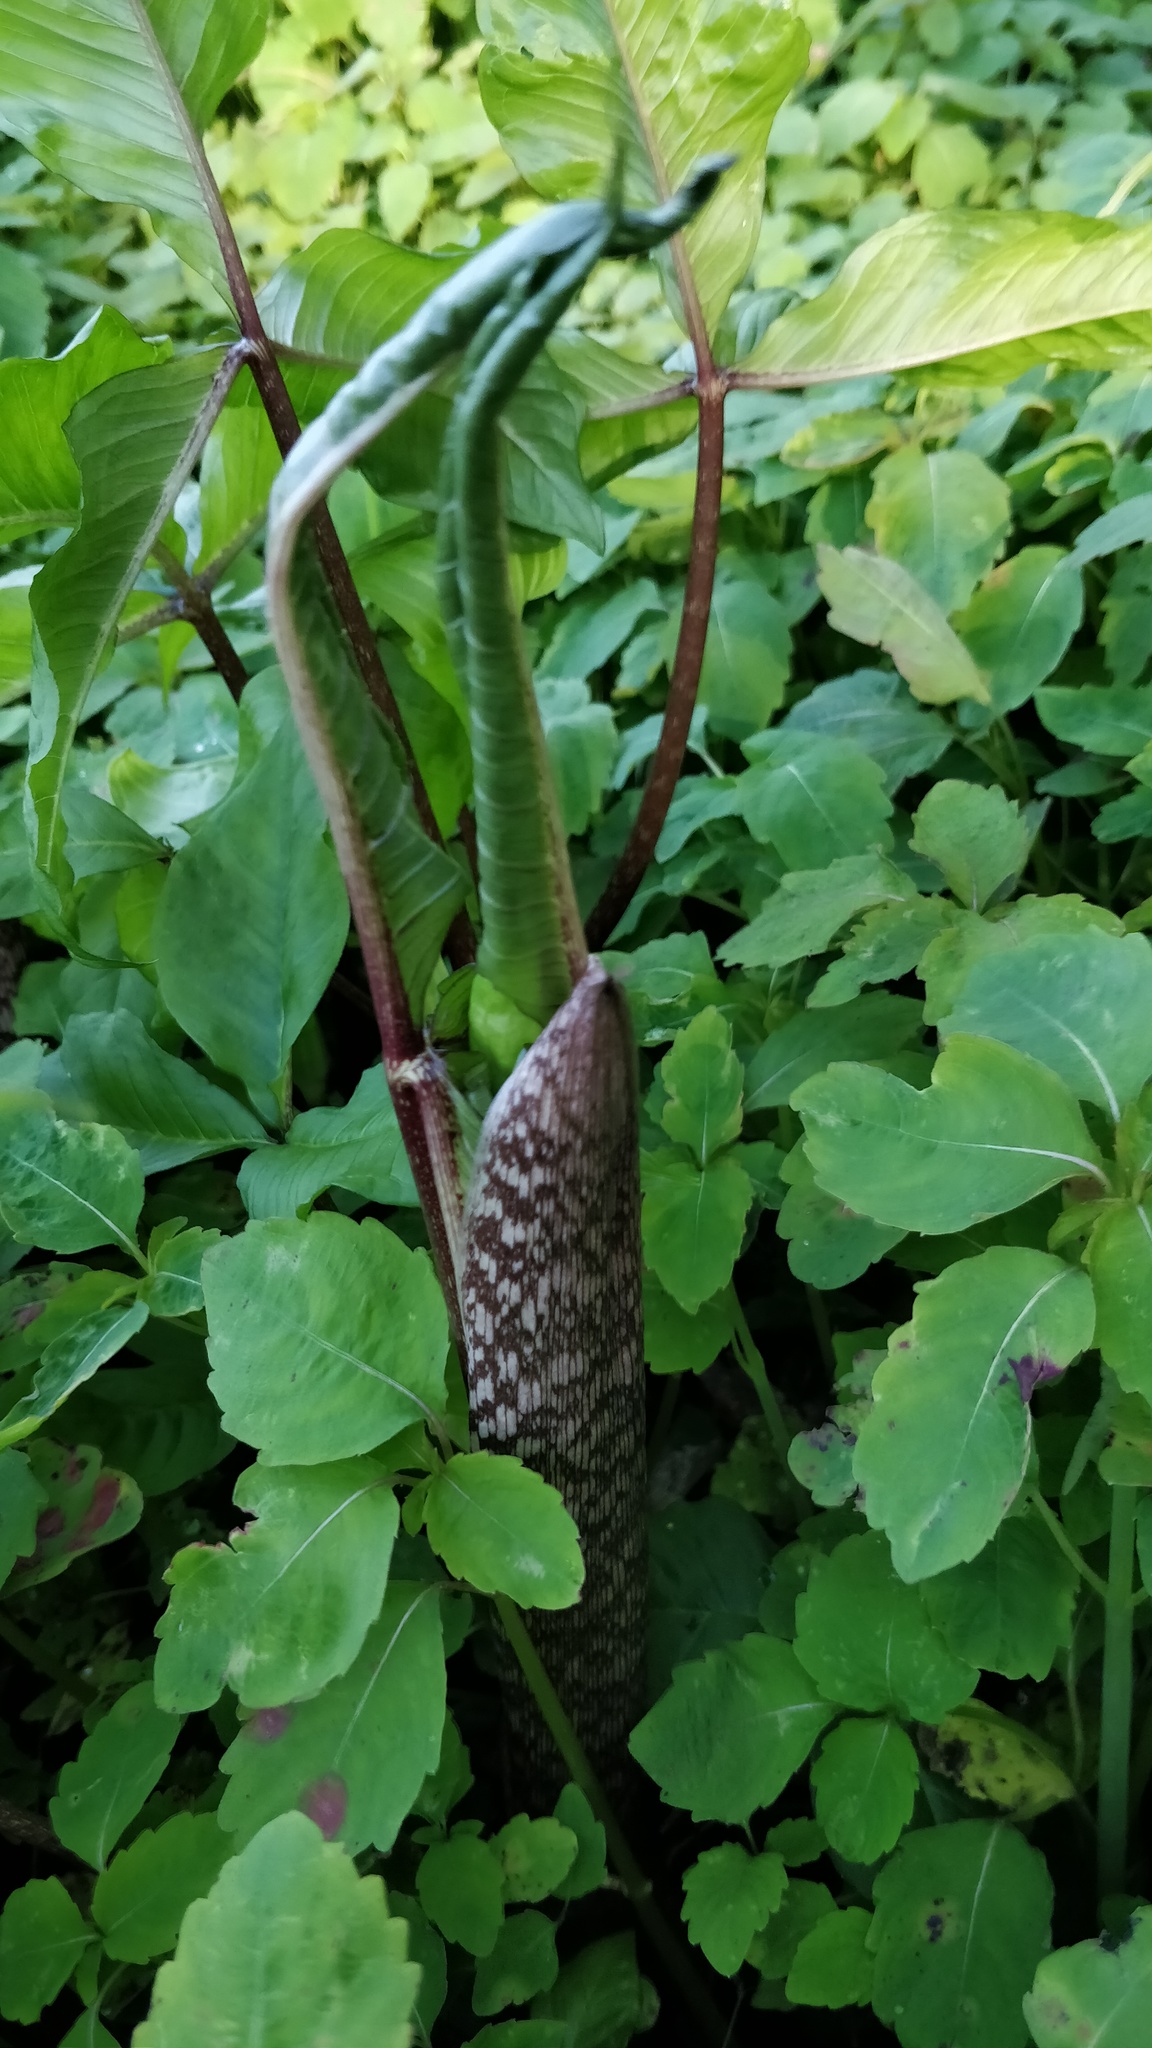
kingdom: Plantae
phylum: Tracheophyta
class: Liliopsida
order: Alismatales
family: Araceae
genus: Arisaema
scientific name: Arisaema triphyllum
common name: Jack-in-the-pulpit
